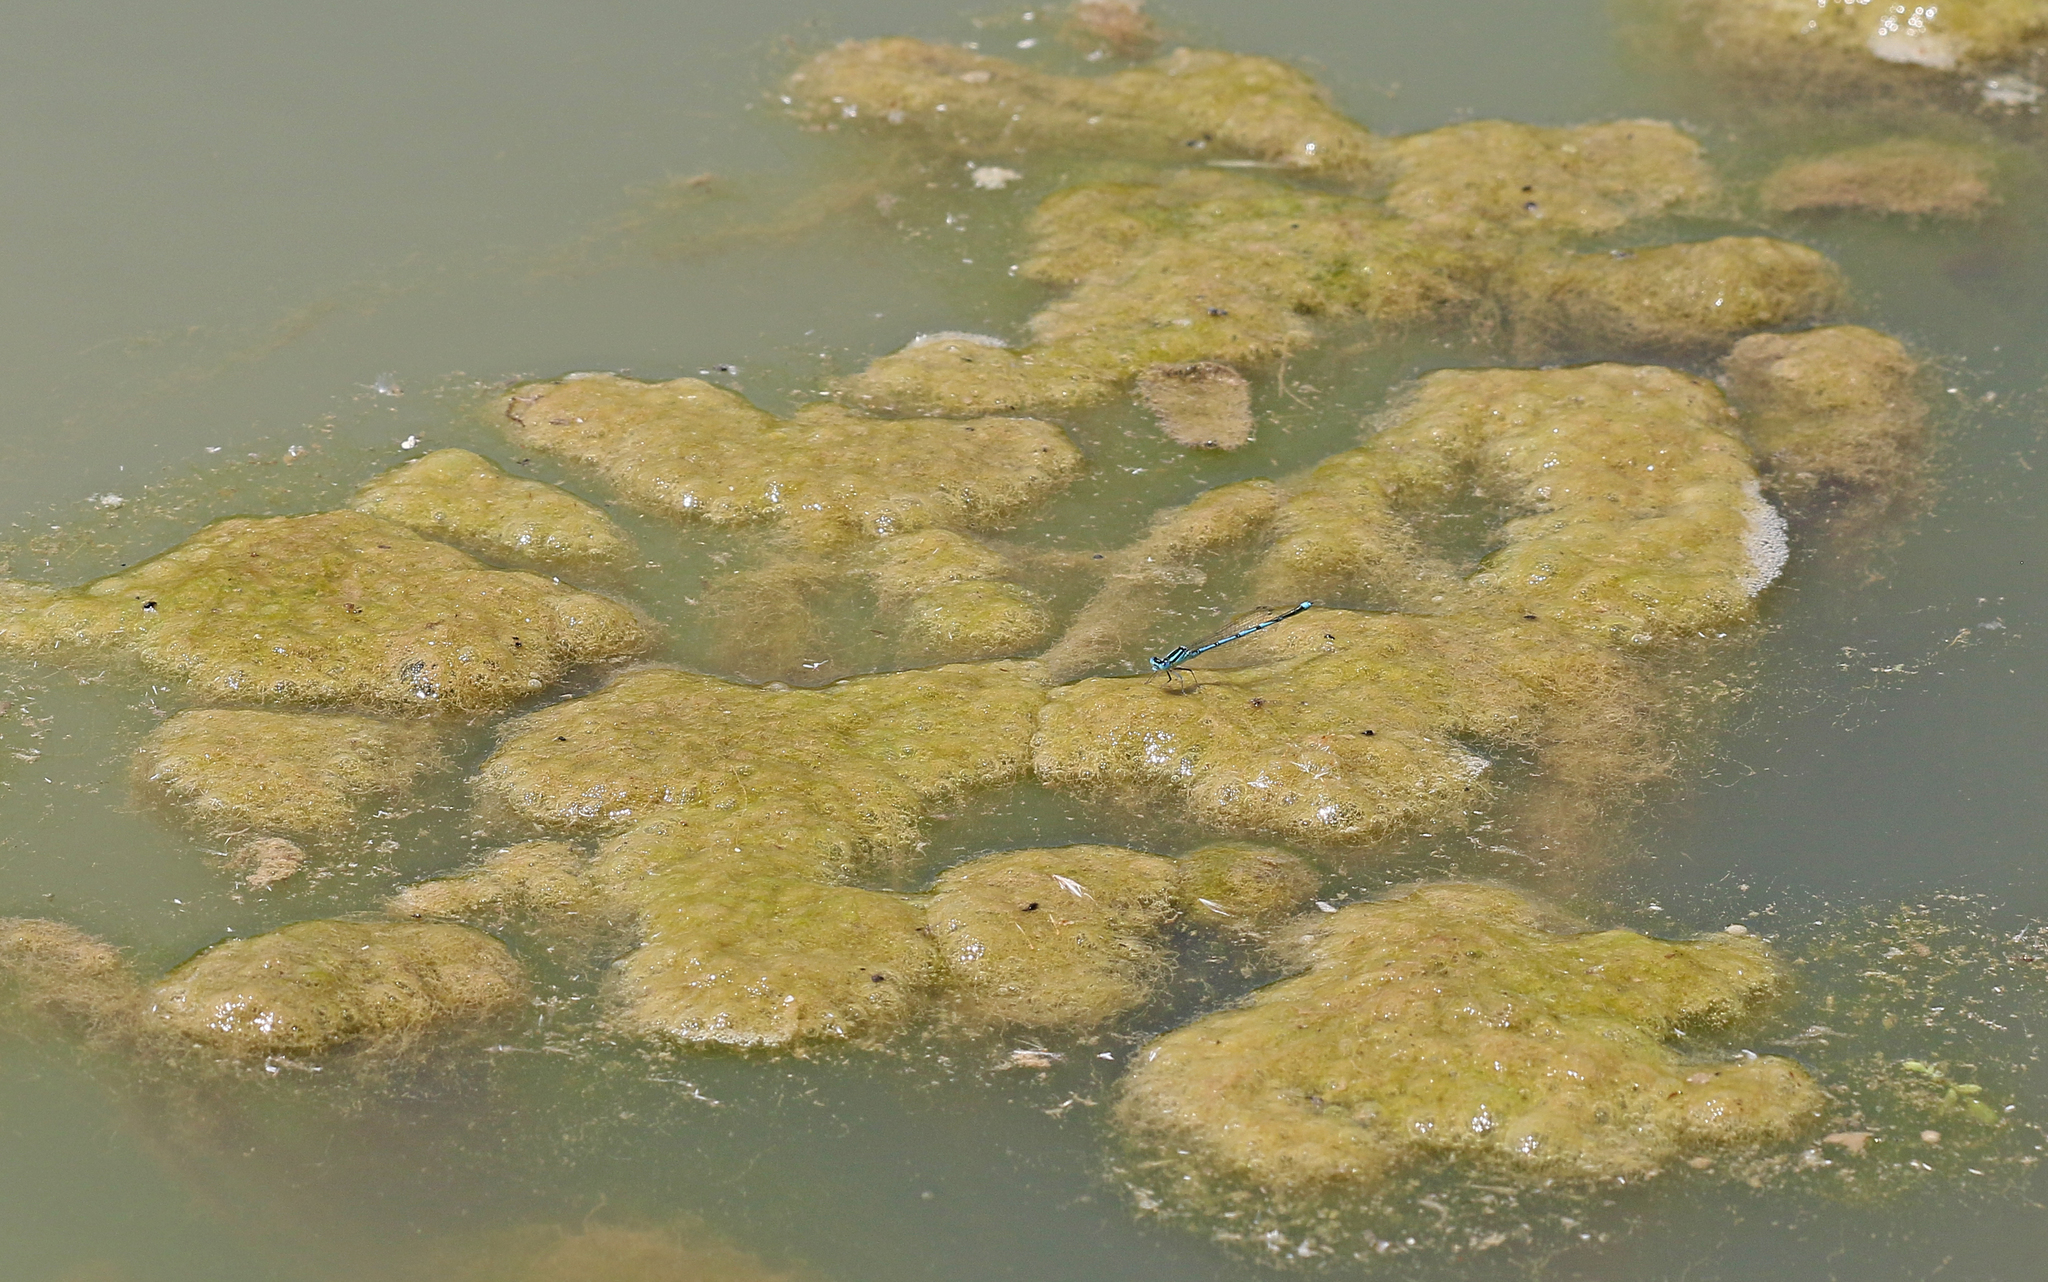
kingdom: Animalia
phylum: Arthropoda
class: Insecta
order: Odonata
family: Coenagrionidae
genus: Erythromma
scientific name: Erythromma lindenii
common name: Blue-eye
